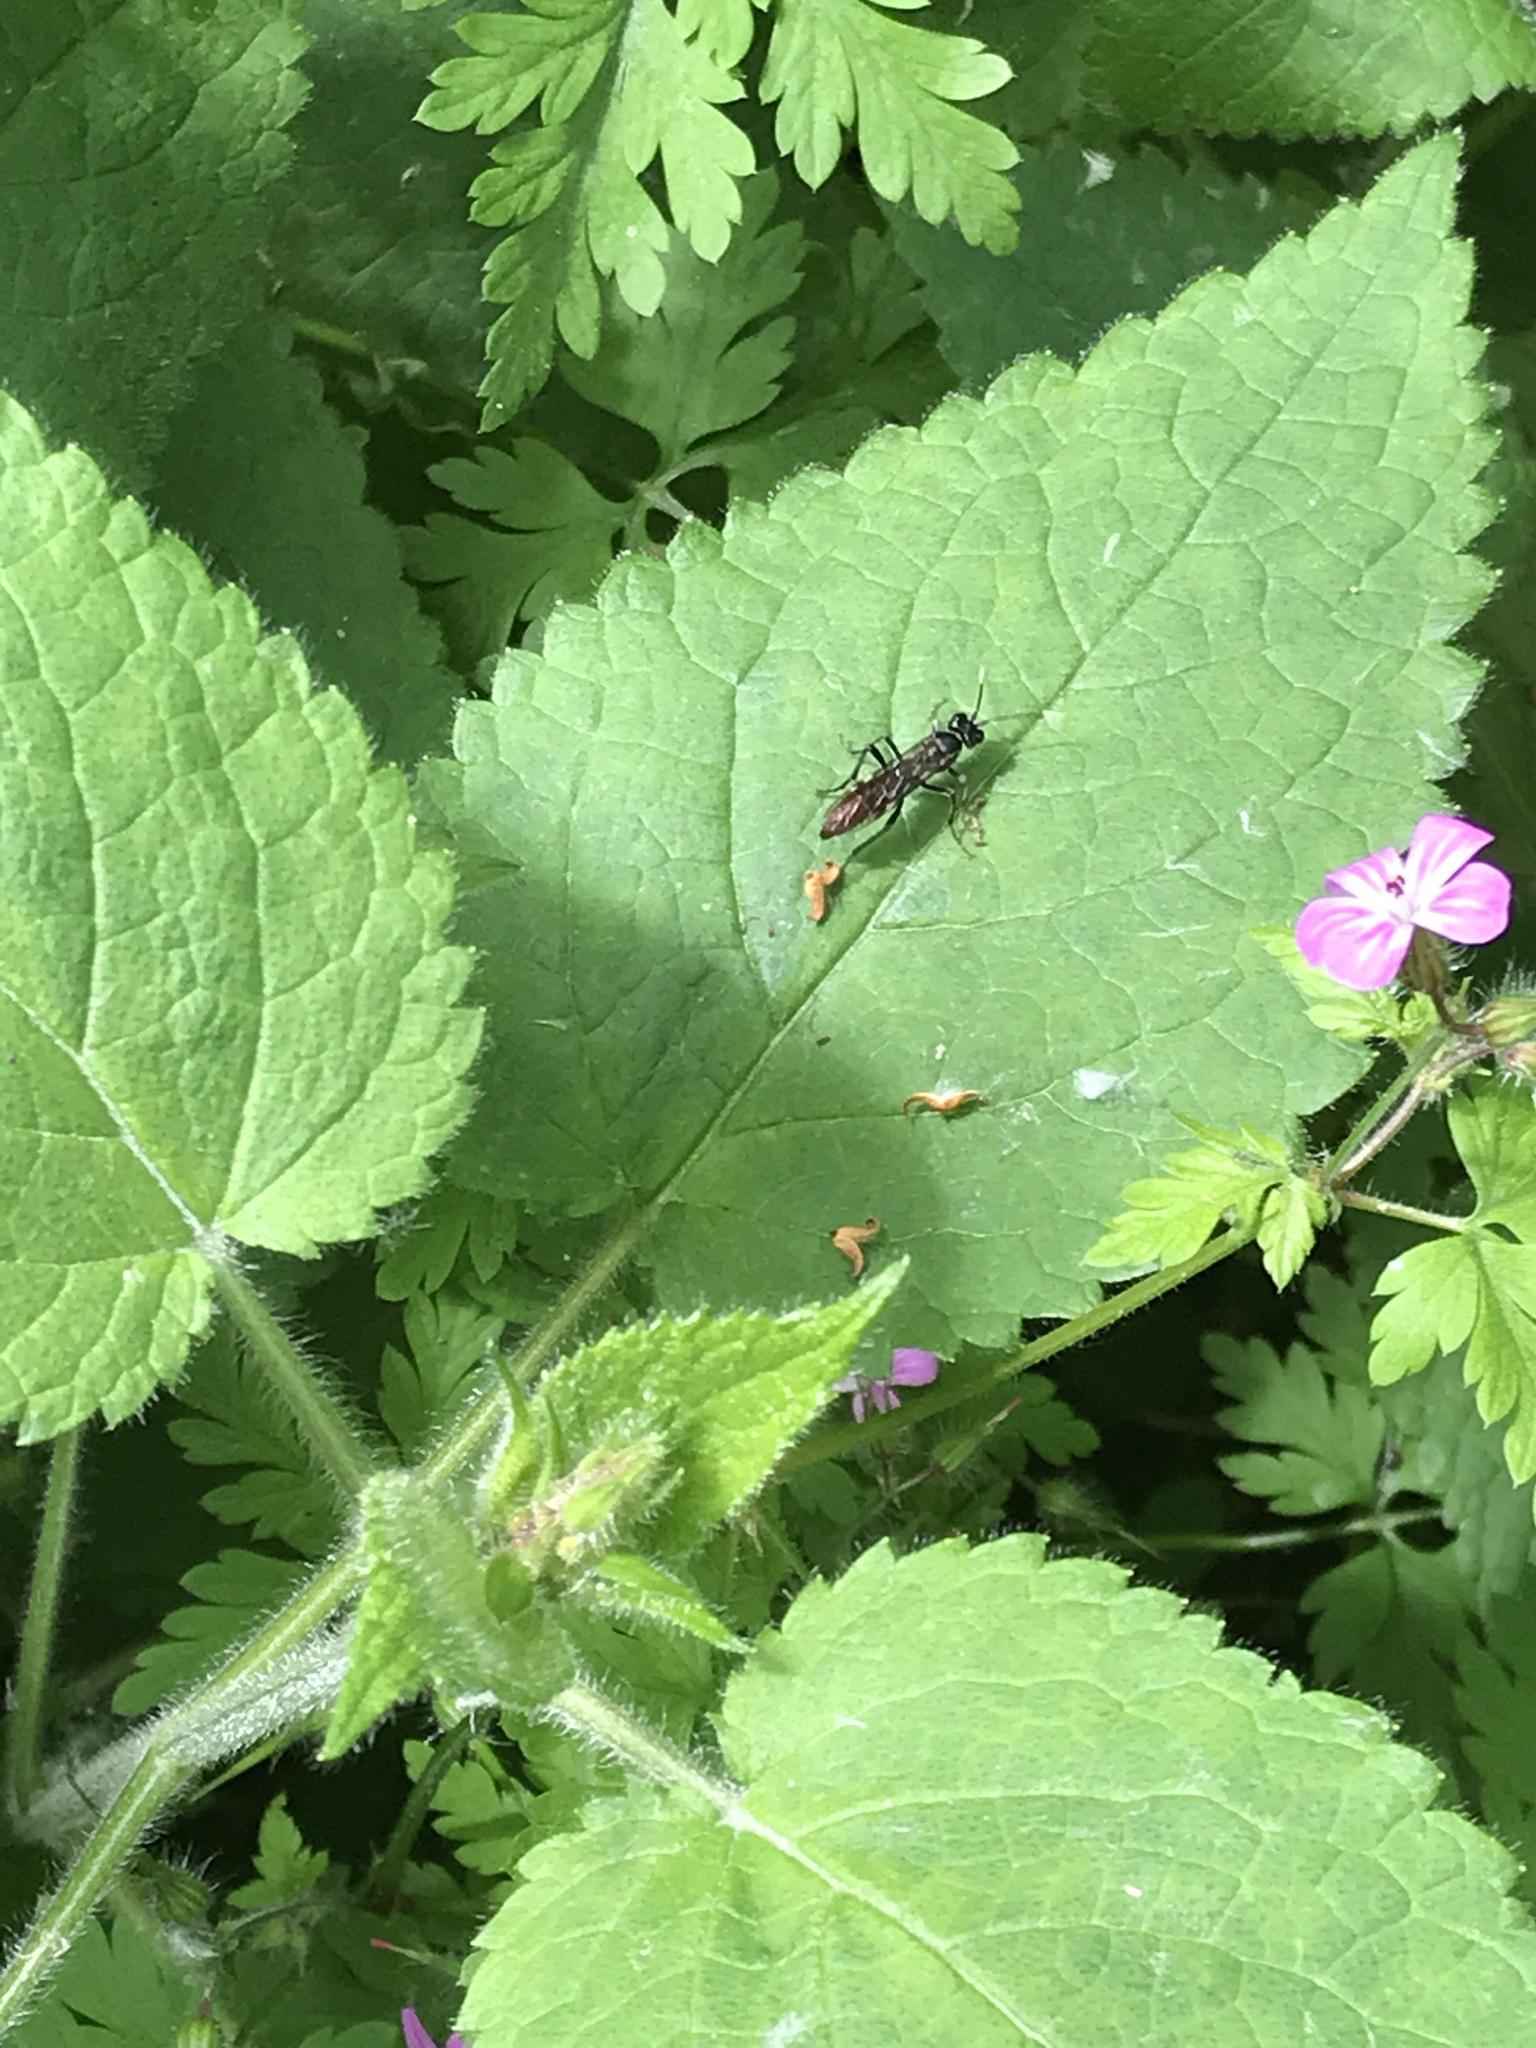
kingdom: Animalia
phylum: Arthropoda
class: Insecta
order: Hymenoptera
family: Tenthredinidae
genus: Tenthredo
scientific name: Tenthredo livida
